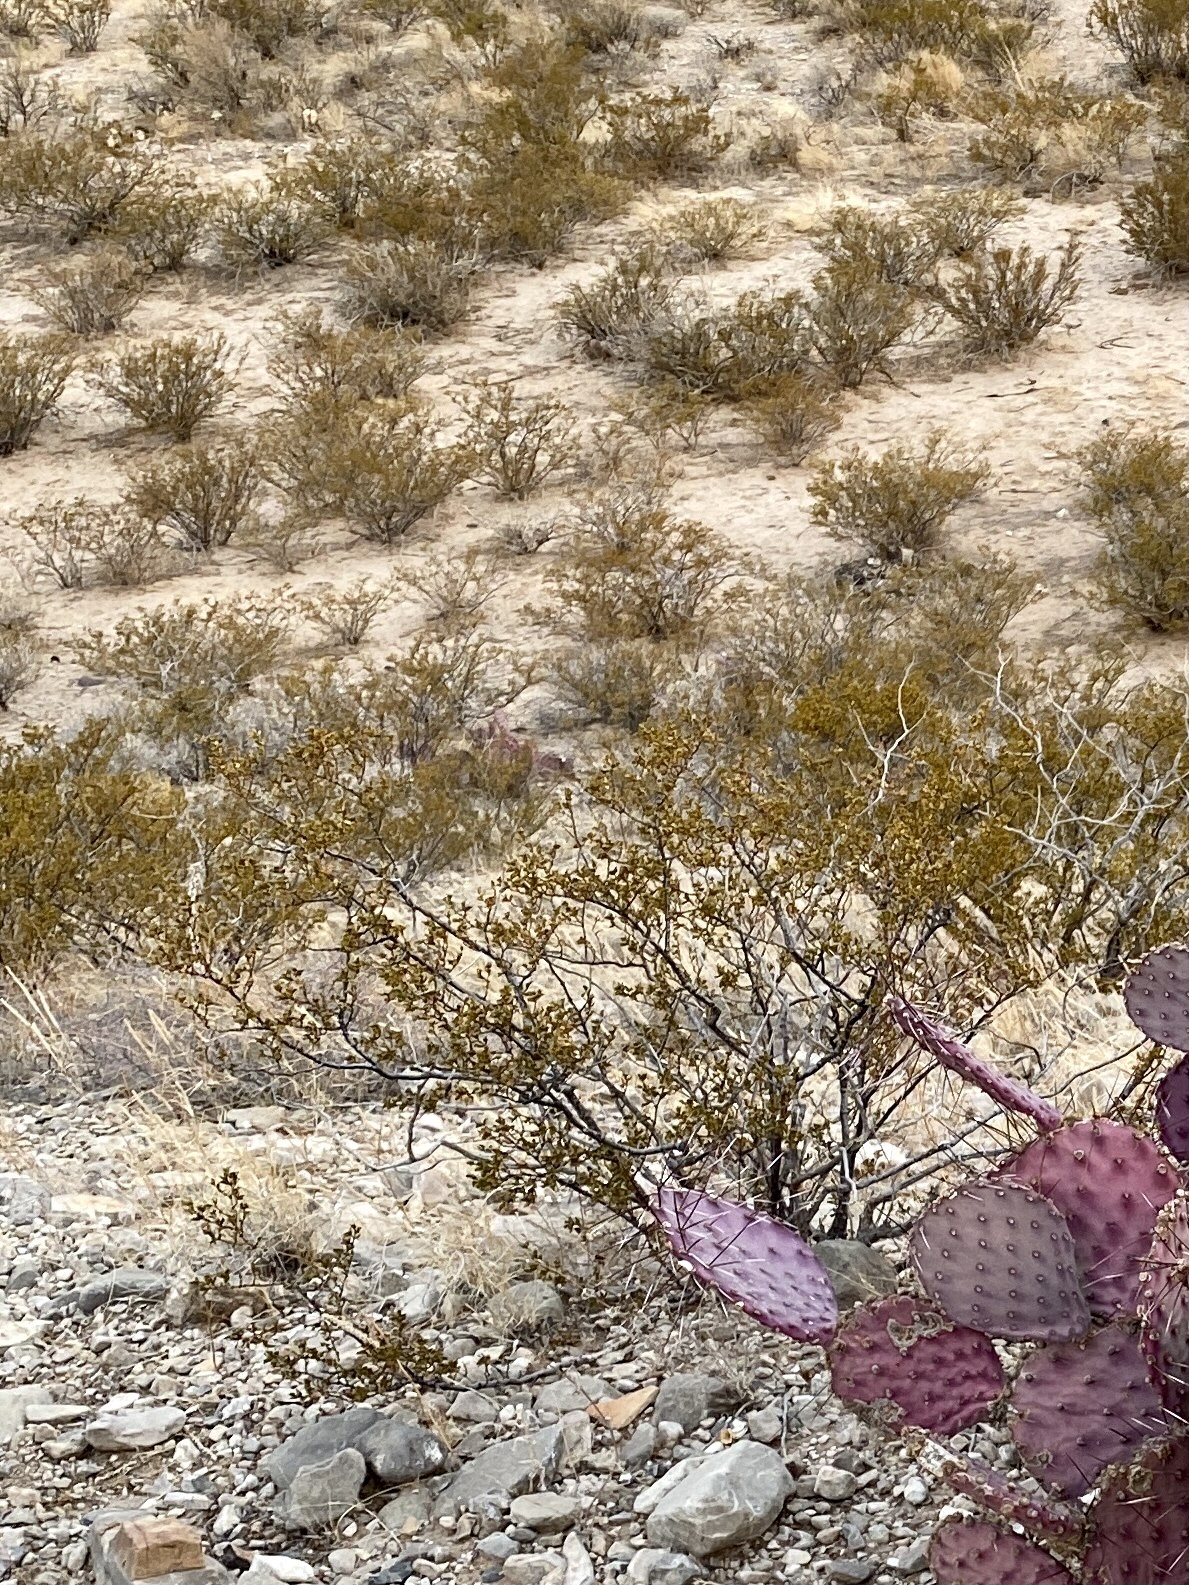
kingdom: Plantae
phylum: Tracheophyta
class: Magnoliopsida
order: Zygophyllales
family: Zygophyllaceae
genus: Larrea
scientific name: Larrea tridentata
